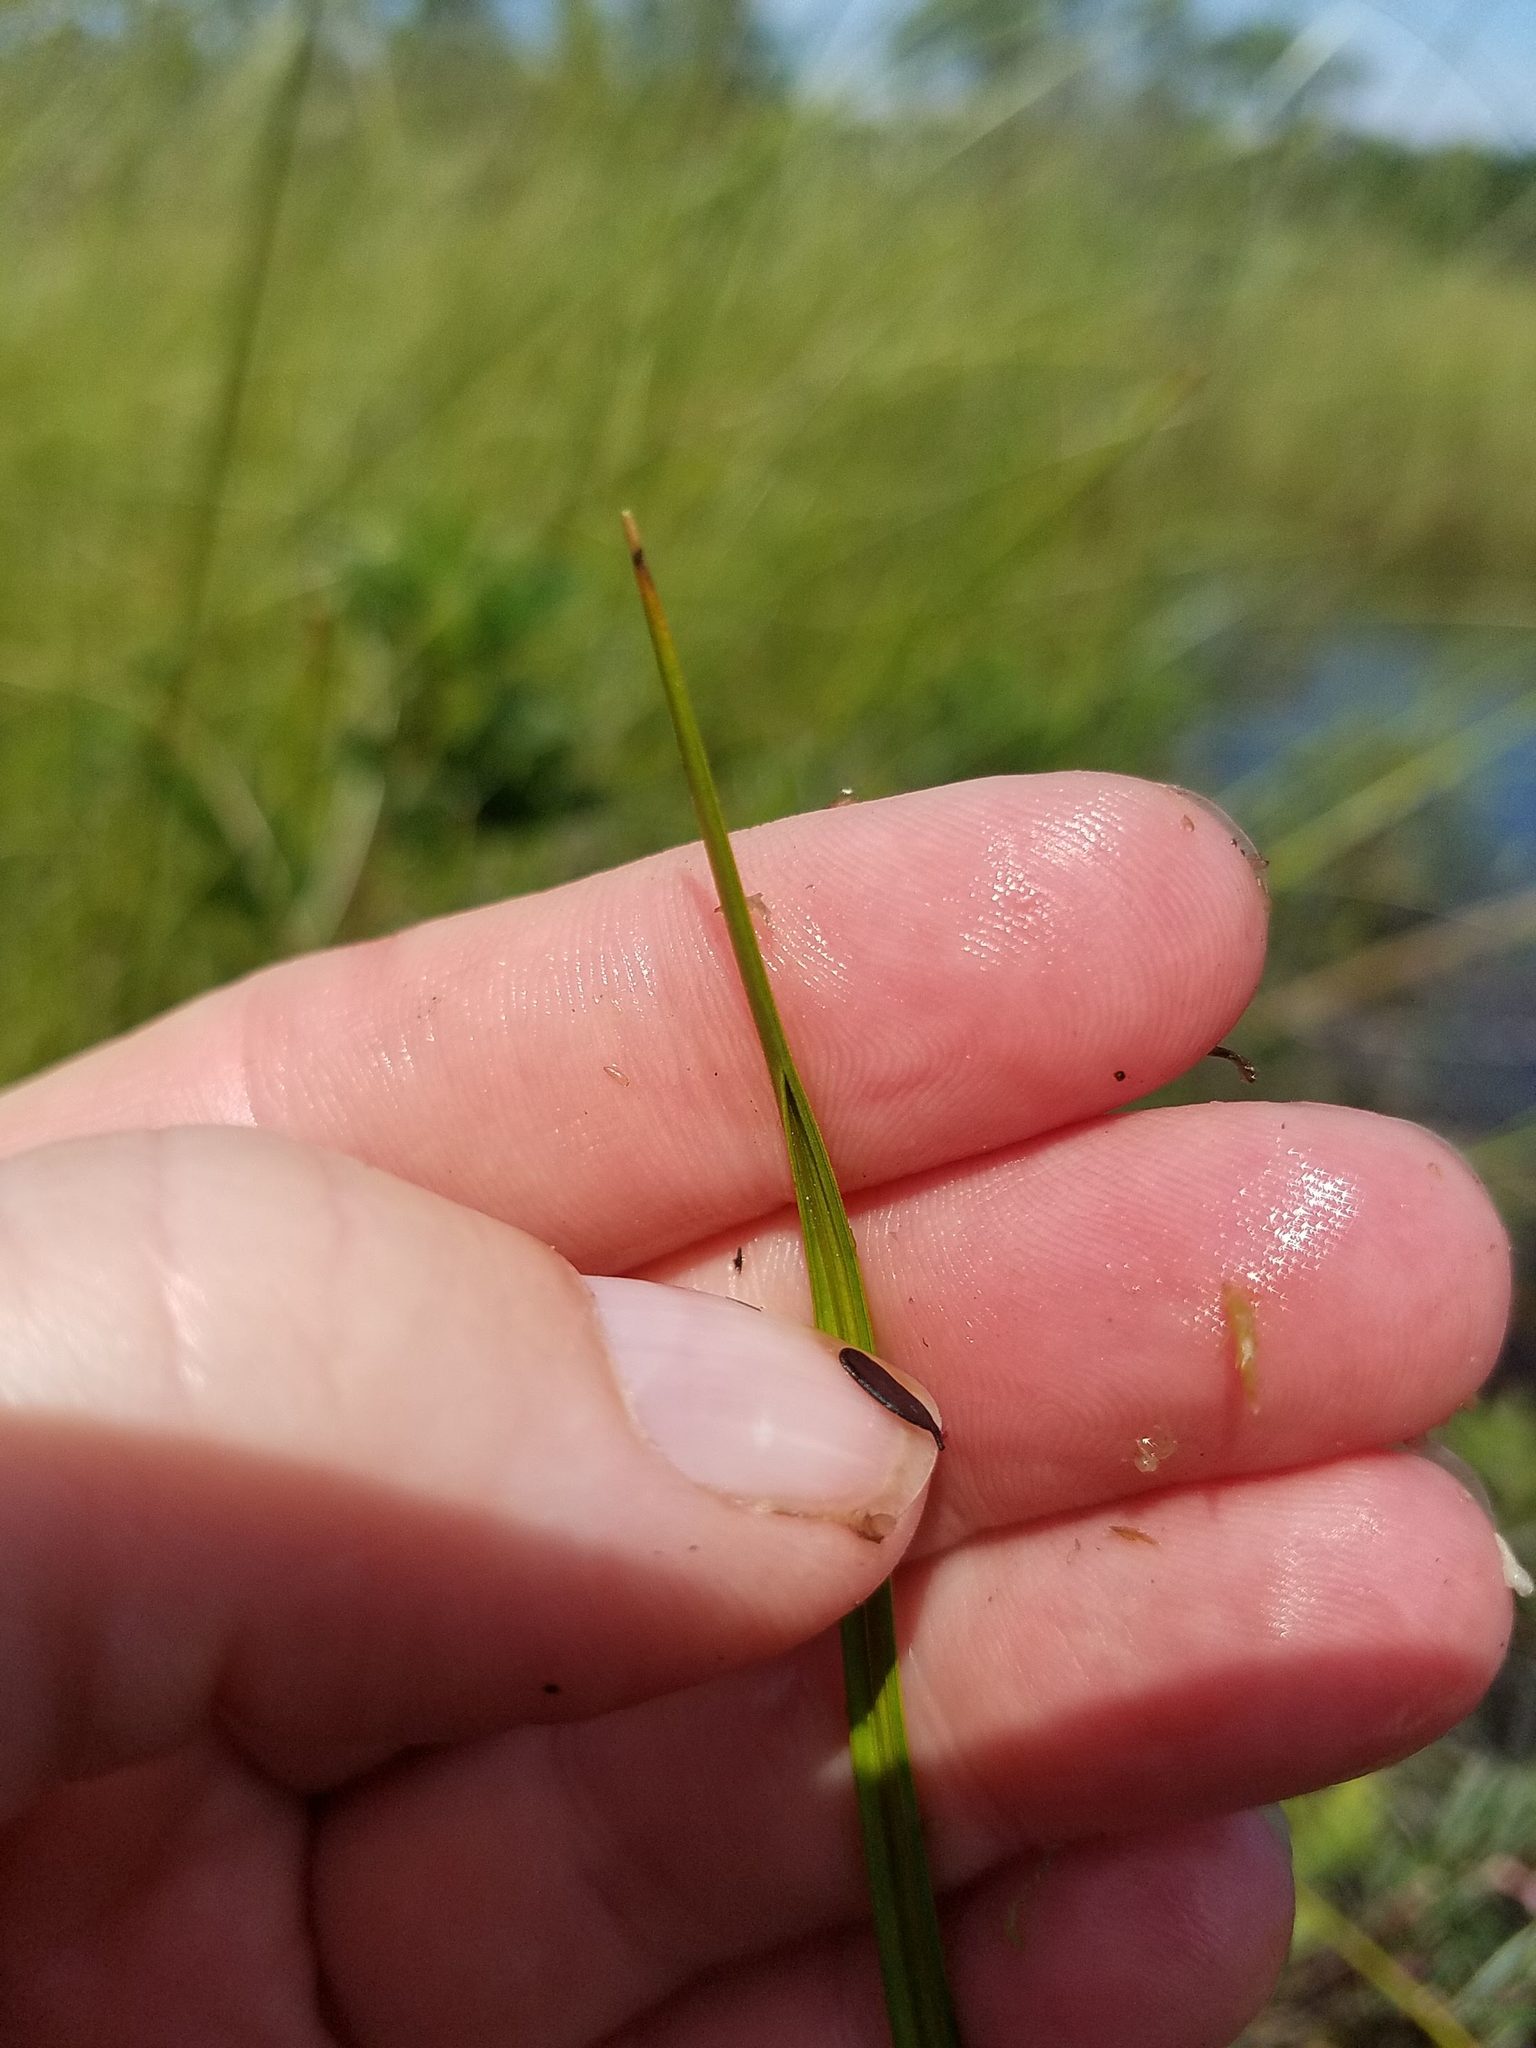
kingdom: Plantae
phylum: Tracheophyta
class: Liliopsida
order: Poales
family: Cyperaceae
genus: Cladium
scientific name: Cladium mariscoides
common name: Smooth sawgrass
